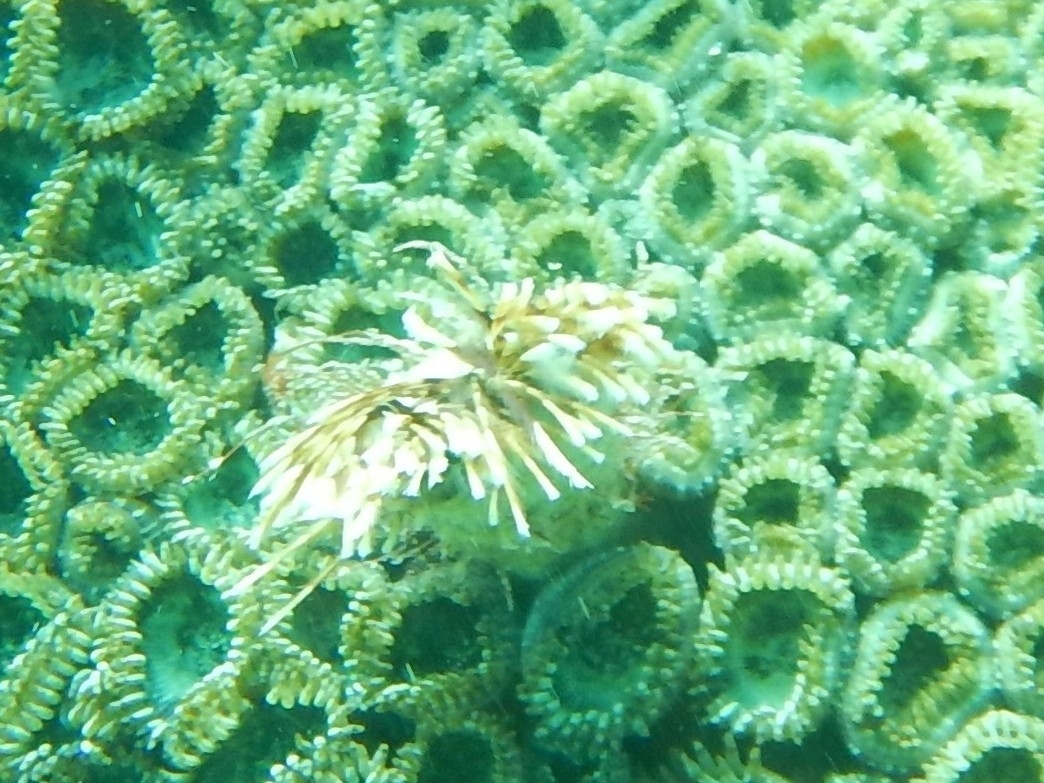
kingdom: Animalia
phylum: Annelida
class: Polychaeta
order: Sabellida
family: Sabellidae
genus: Sabellastarte
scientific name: Sabellastarte magnifica
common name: Giant feather-duster worm
